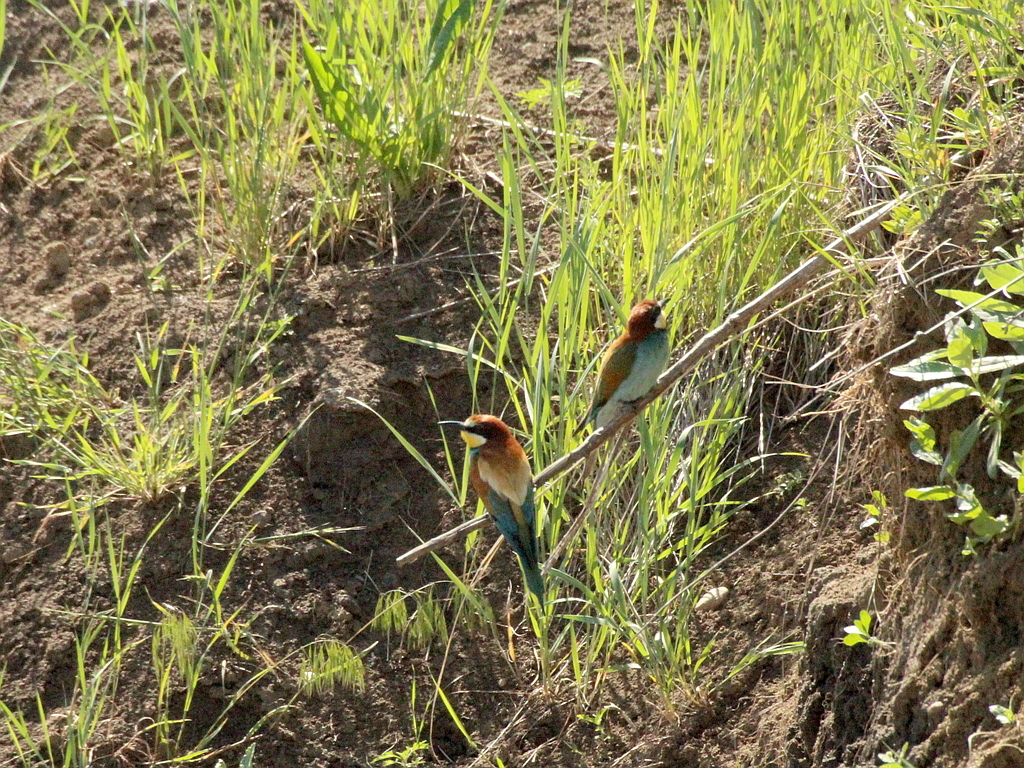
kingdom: Animalia
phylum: Chordata
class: Aves
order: Coraciiformes
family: Meropidae
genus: Merops
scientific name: Merops apiaster
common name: European bee-eater
